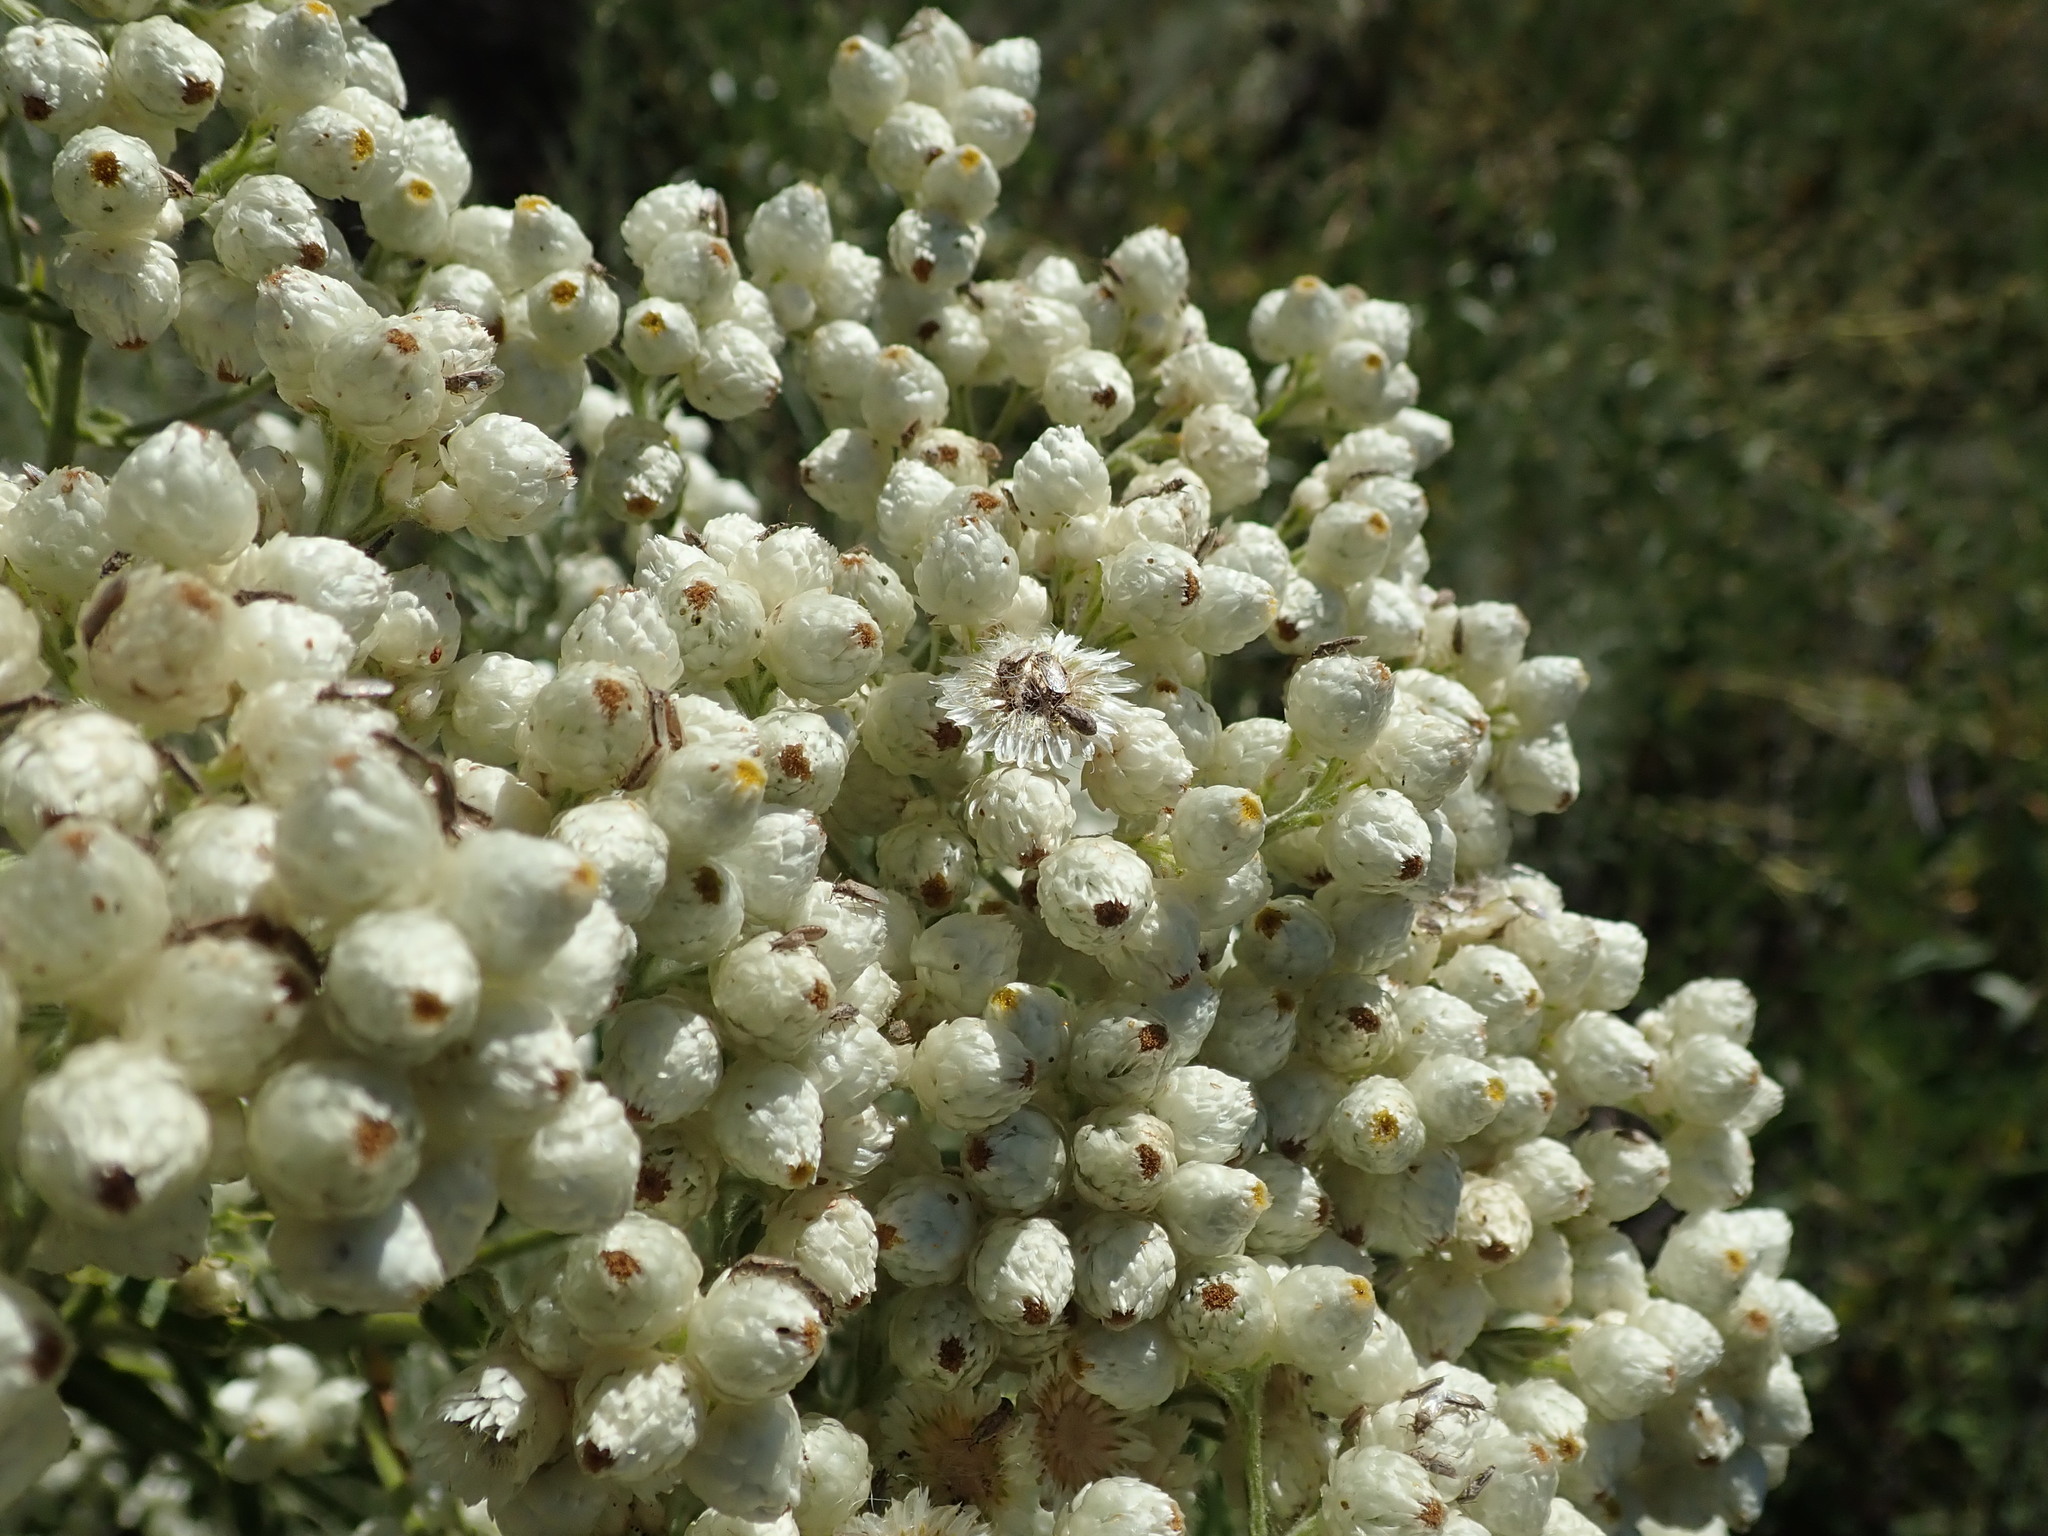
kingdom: Plantae
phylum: Tracheophyta
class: Magnoliopsida
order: Asterales
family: Asteraceae
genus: Pseudognaphalium
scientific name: Pseudognaphalium californicum
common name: California rabbit-tobacco
